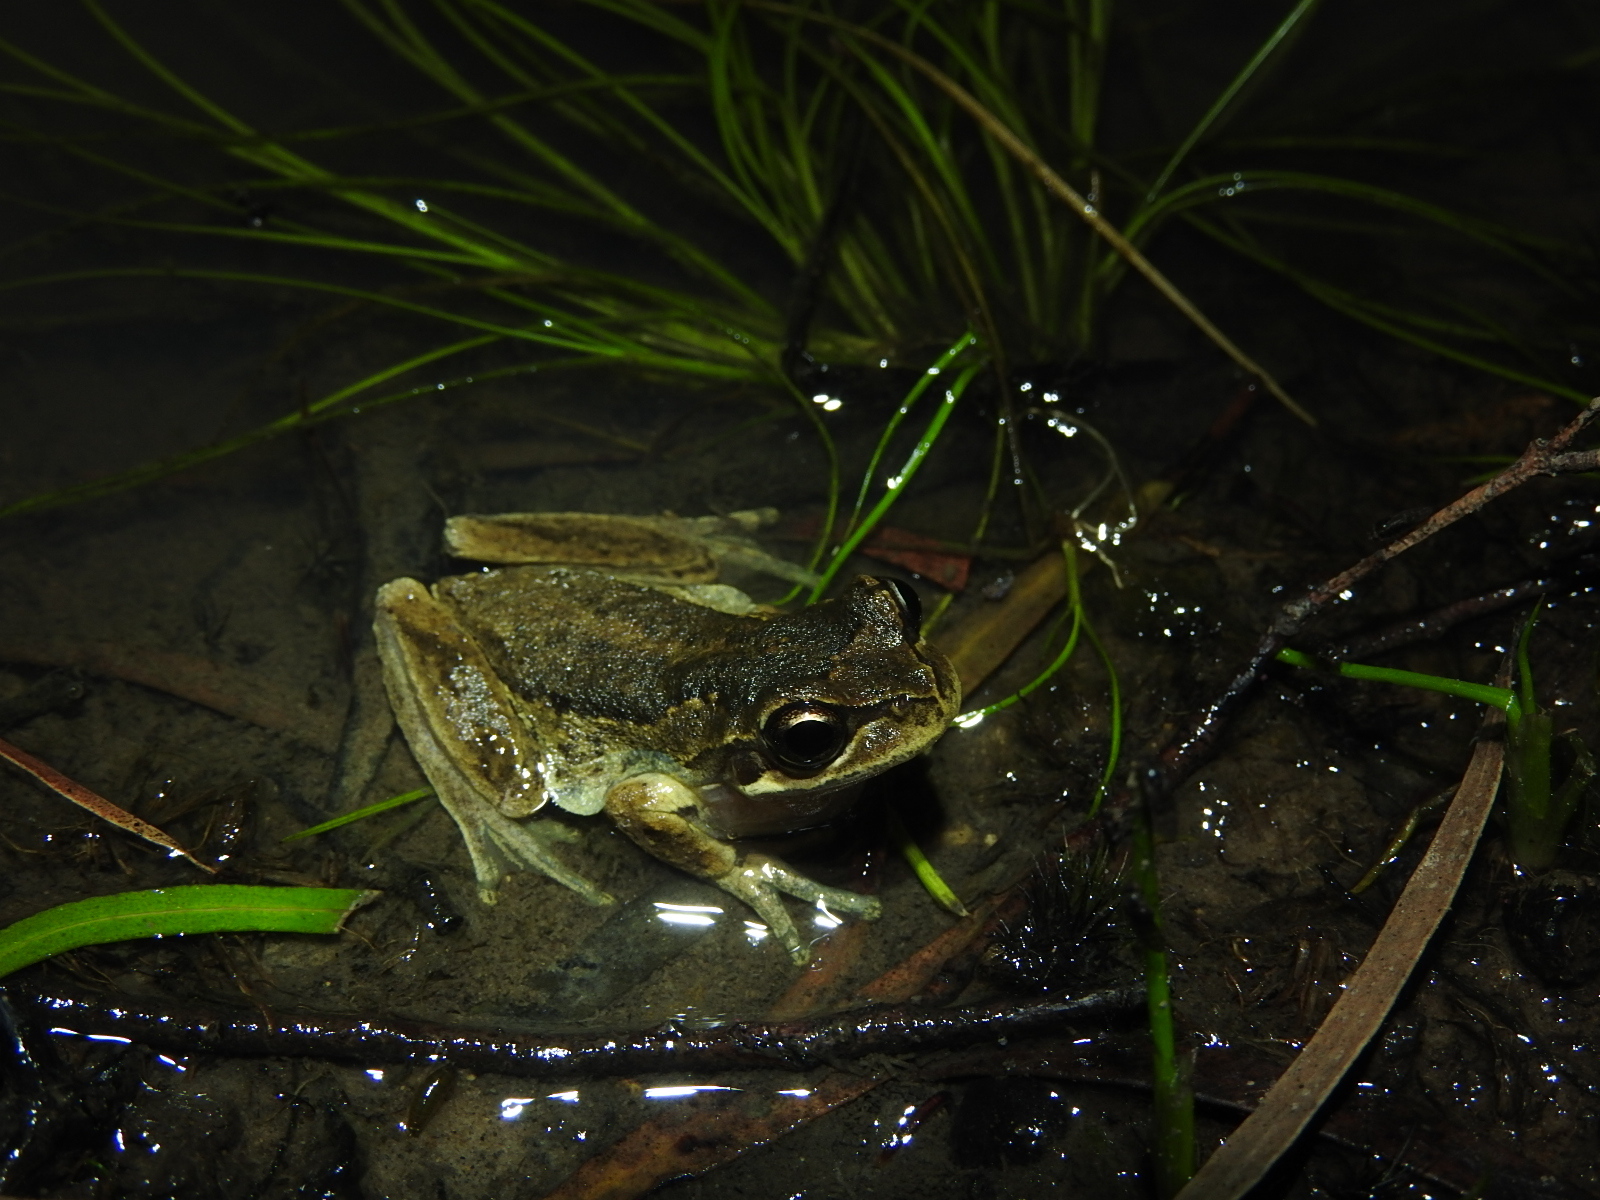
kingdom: Animalia
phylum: Chordata
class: Amphibia
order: Anura
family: Pelodryadidae
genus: Litoria
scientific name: Litoria ewingii
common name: Southern brown tree frog
